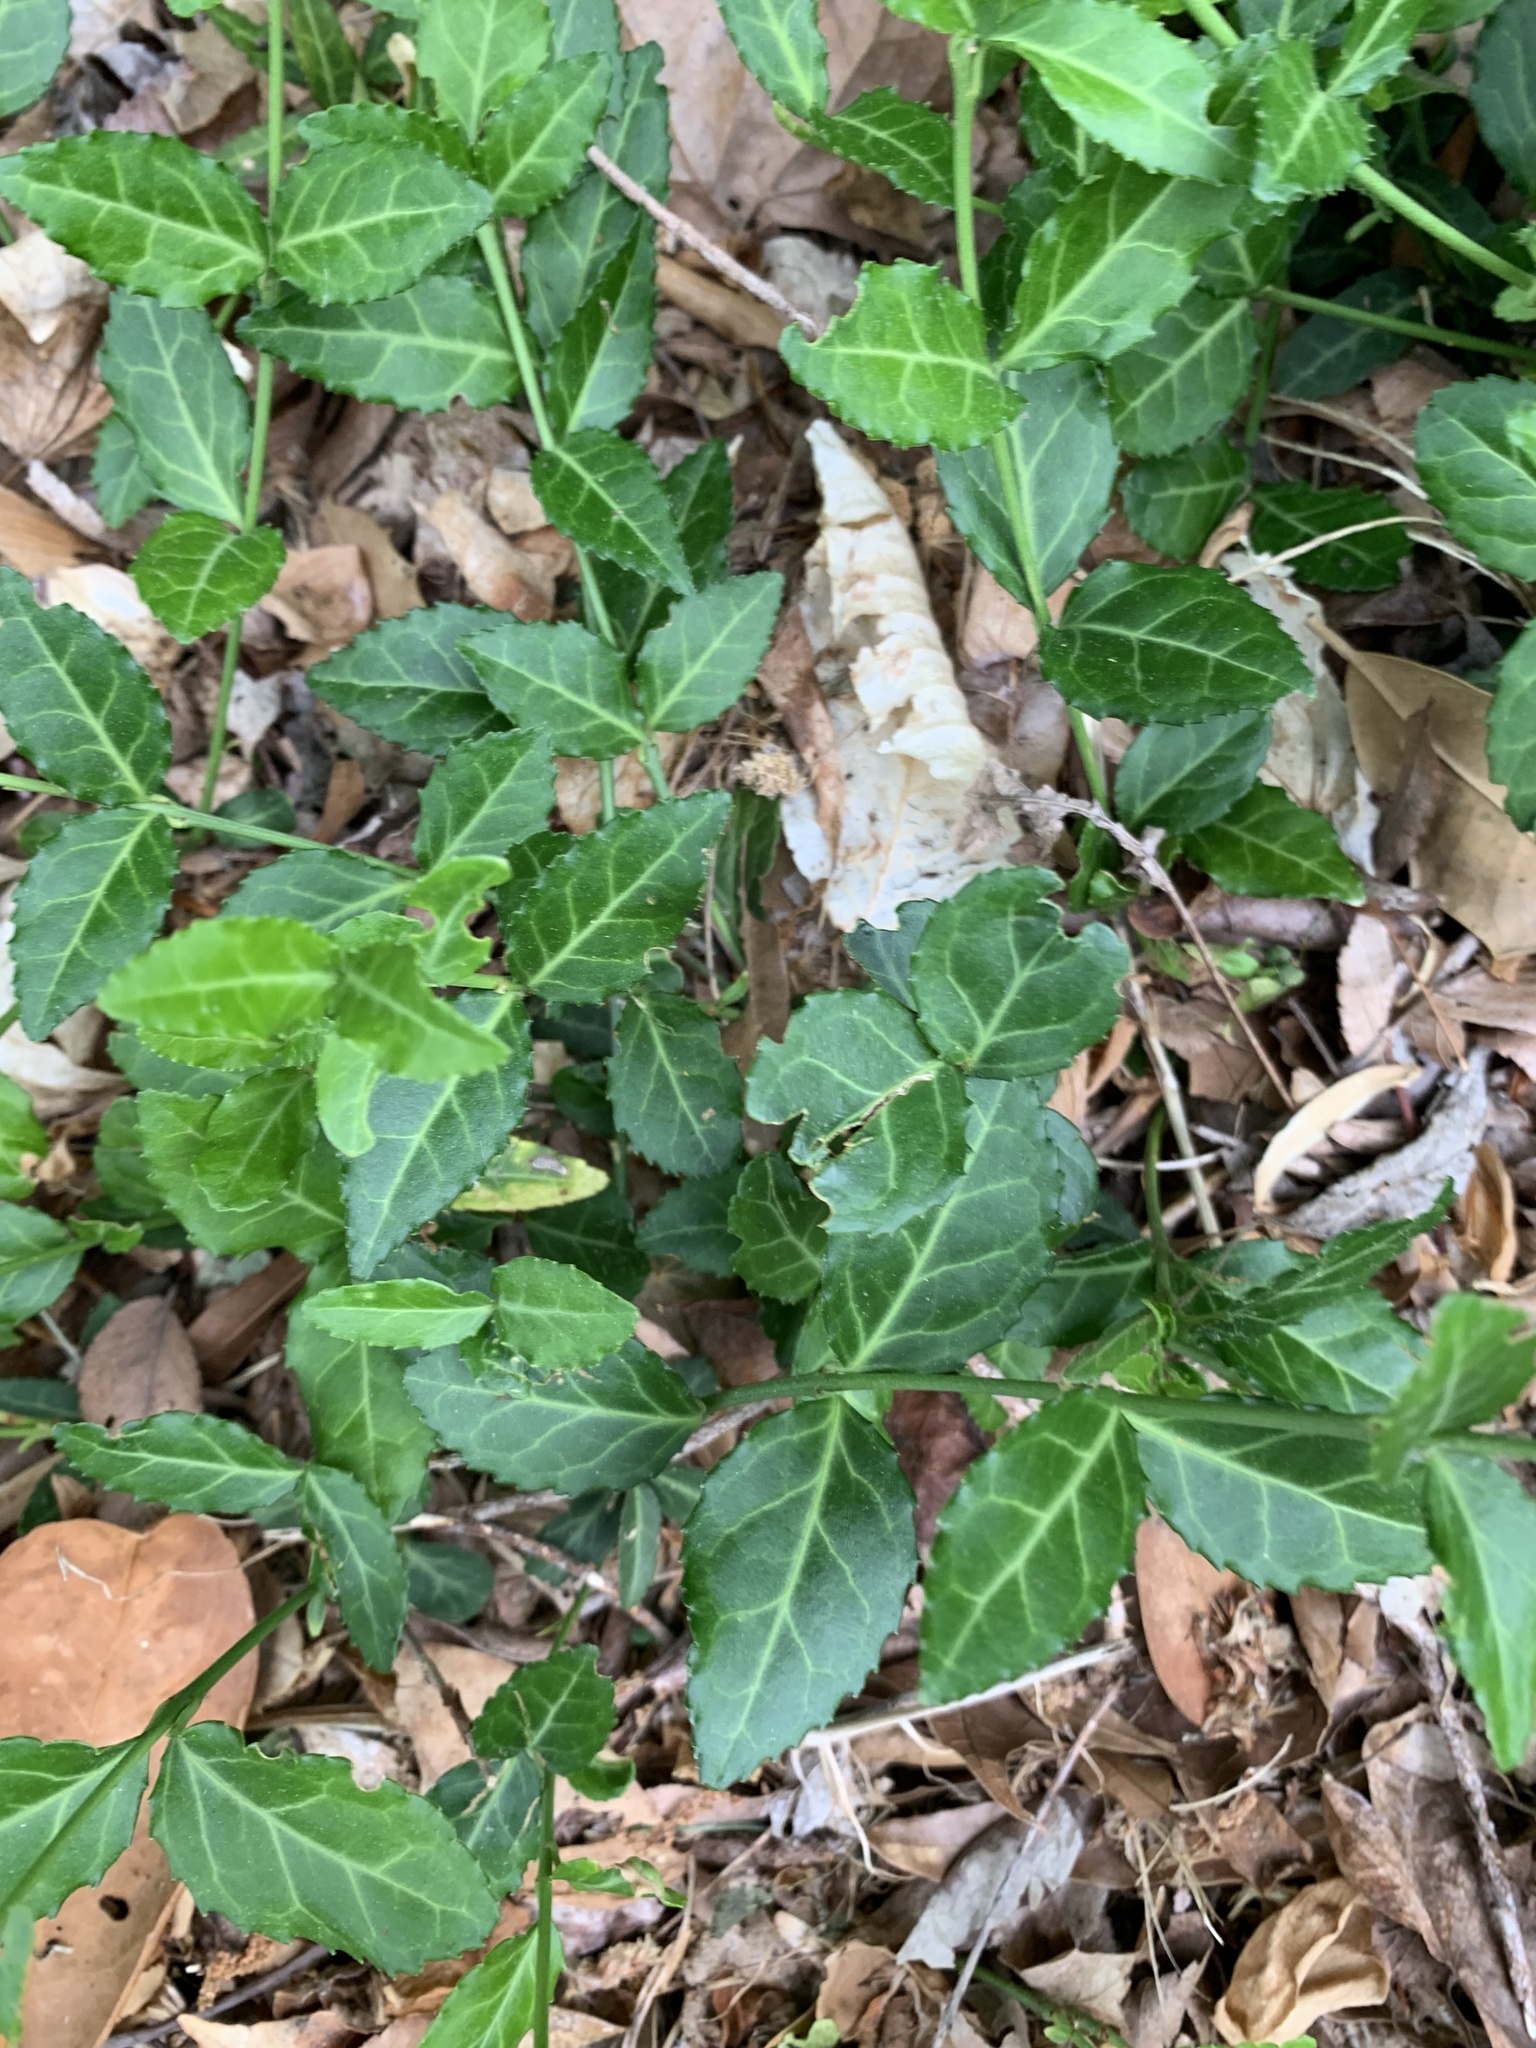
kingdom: Plantae
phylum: Tracheophyta
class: Magnoliopsida
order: Celastrales
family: Celastraceae
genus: Euonymus
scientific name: Euonymus fortunei
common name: Climbing euonymus
